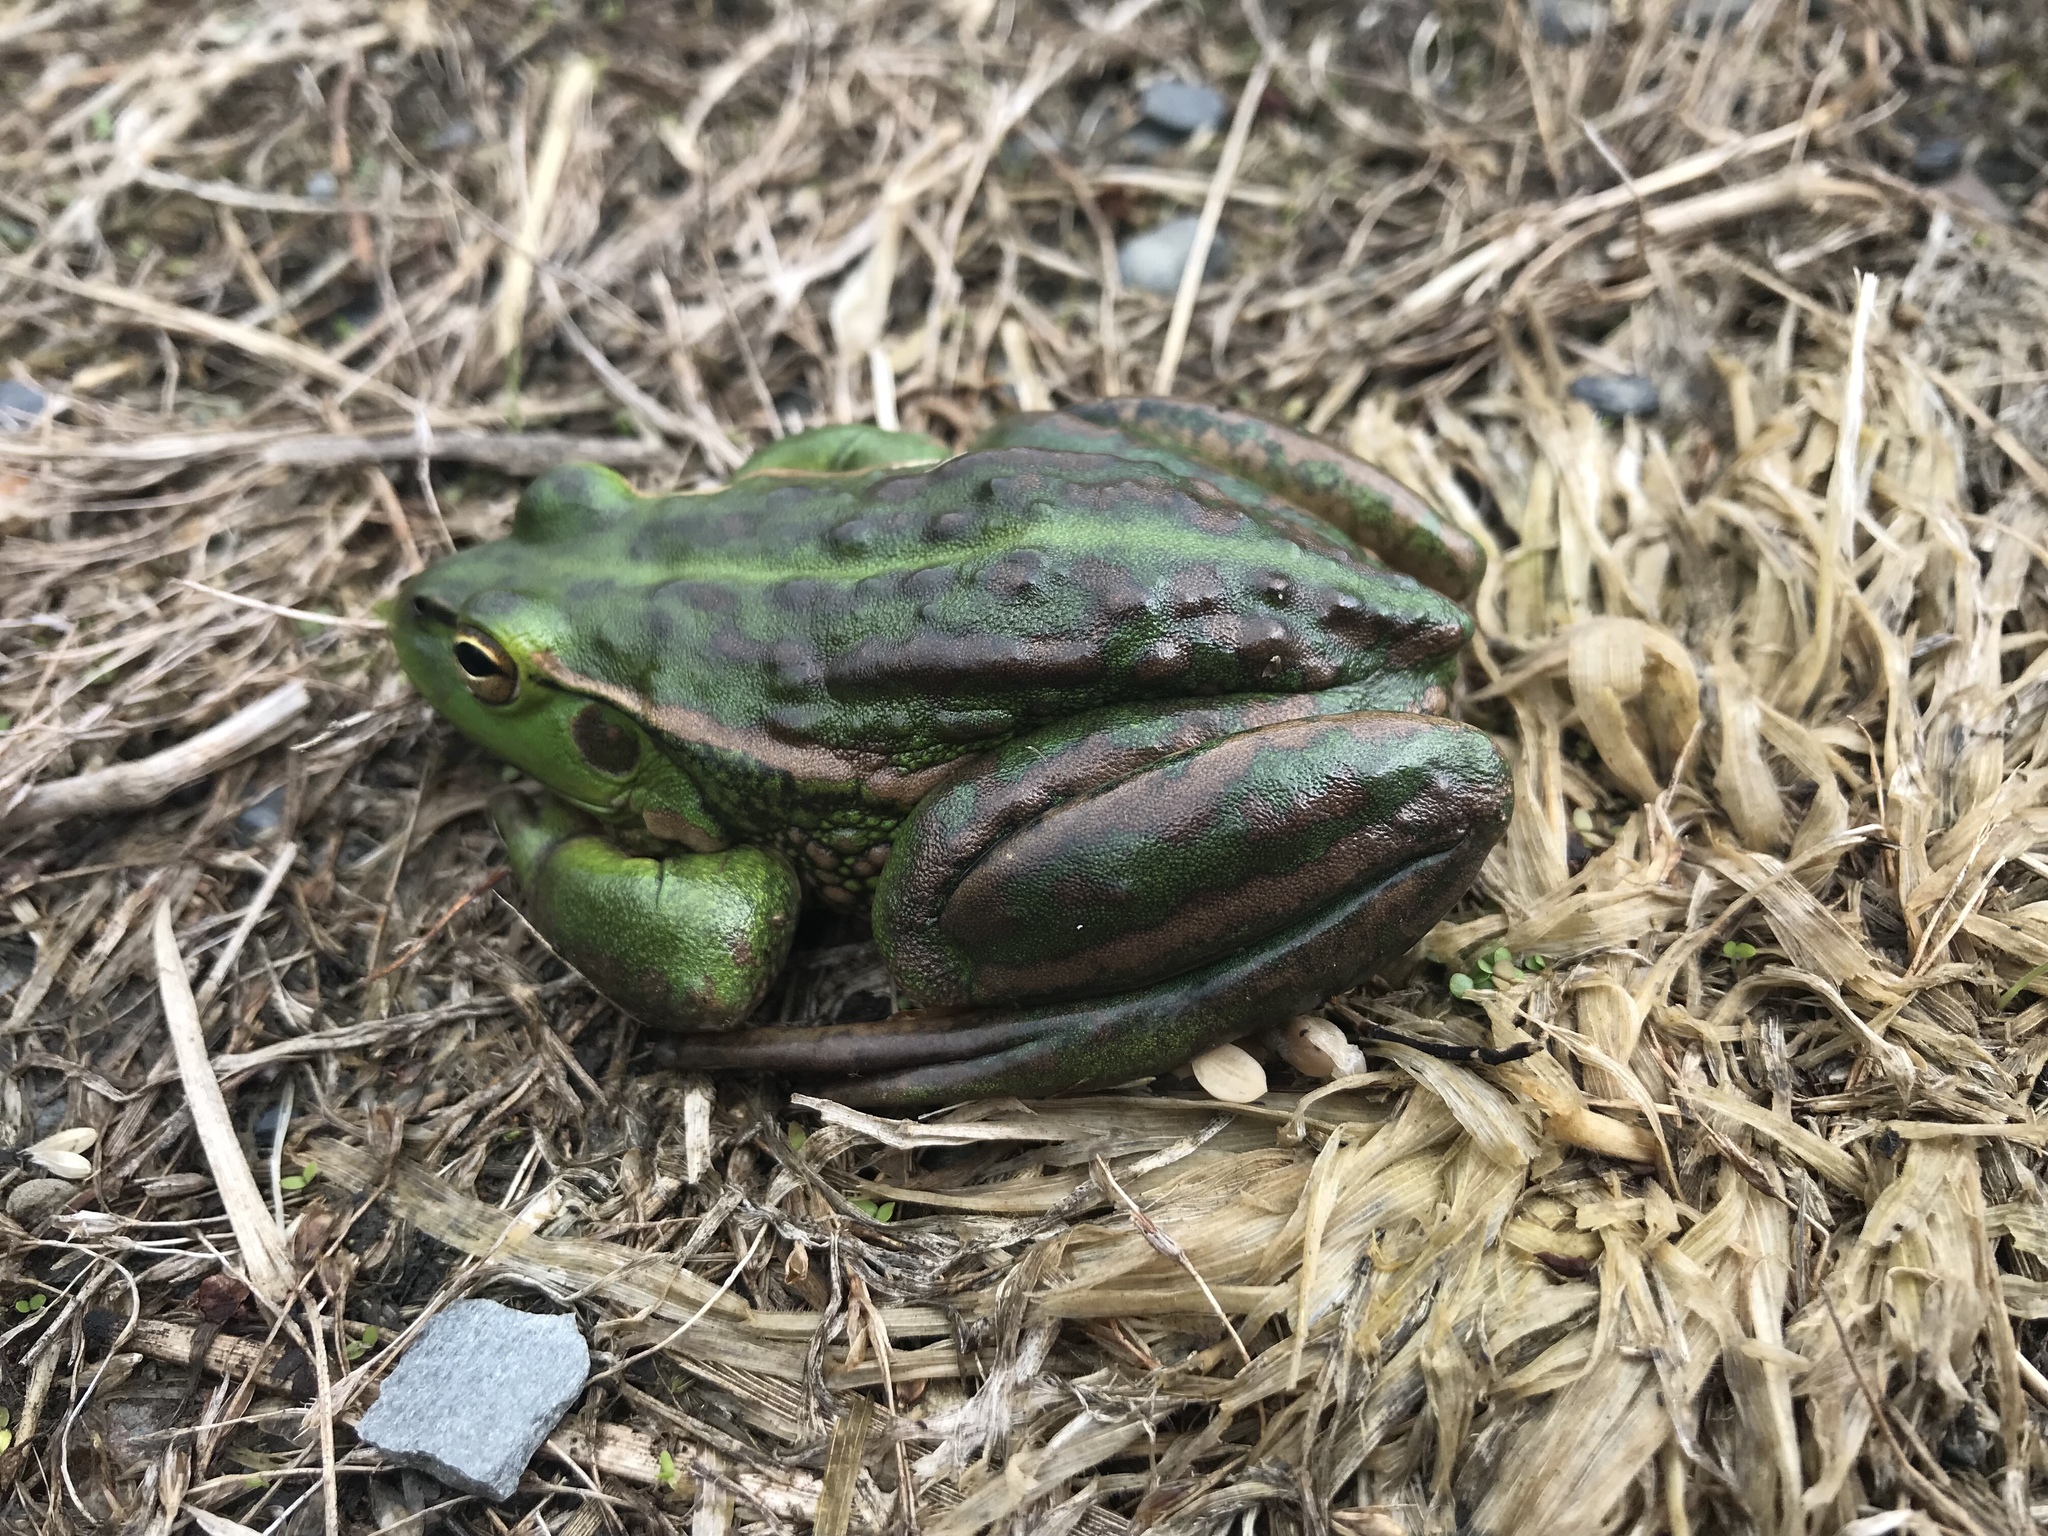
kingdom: Animalia
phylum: Chordata
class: Amphibia
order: Anura
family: Pelodryadidae
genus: Ranoidea
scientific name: Ranoidea raniformis
